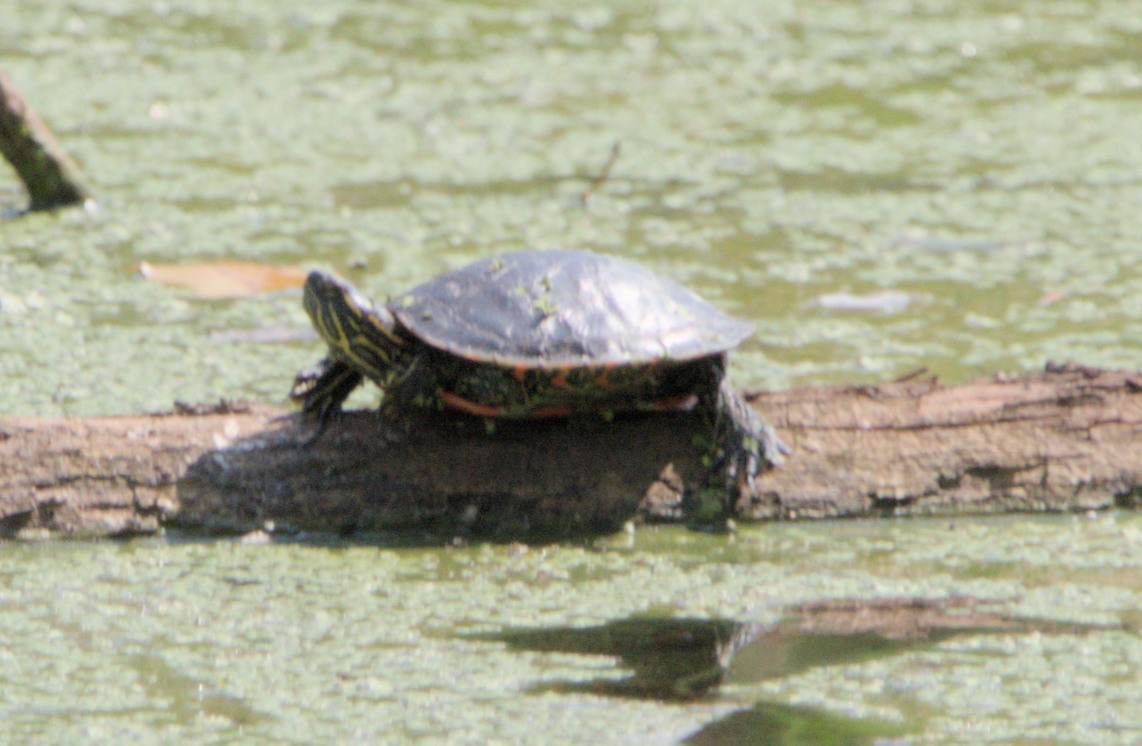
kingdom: Animalia
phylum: Chordata
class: Testudines
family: Emydidae
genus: Chrysemys
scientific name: Chrysemys picta
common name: Painted turtle
